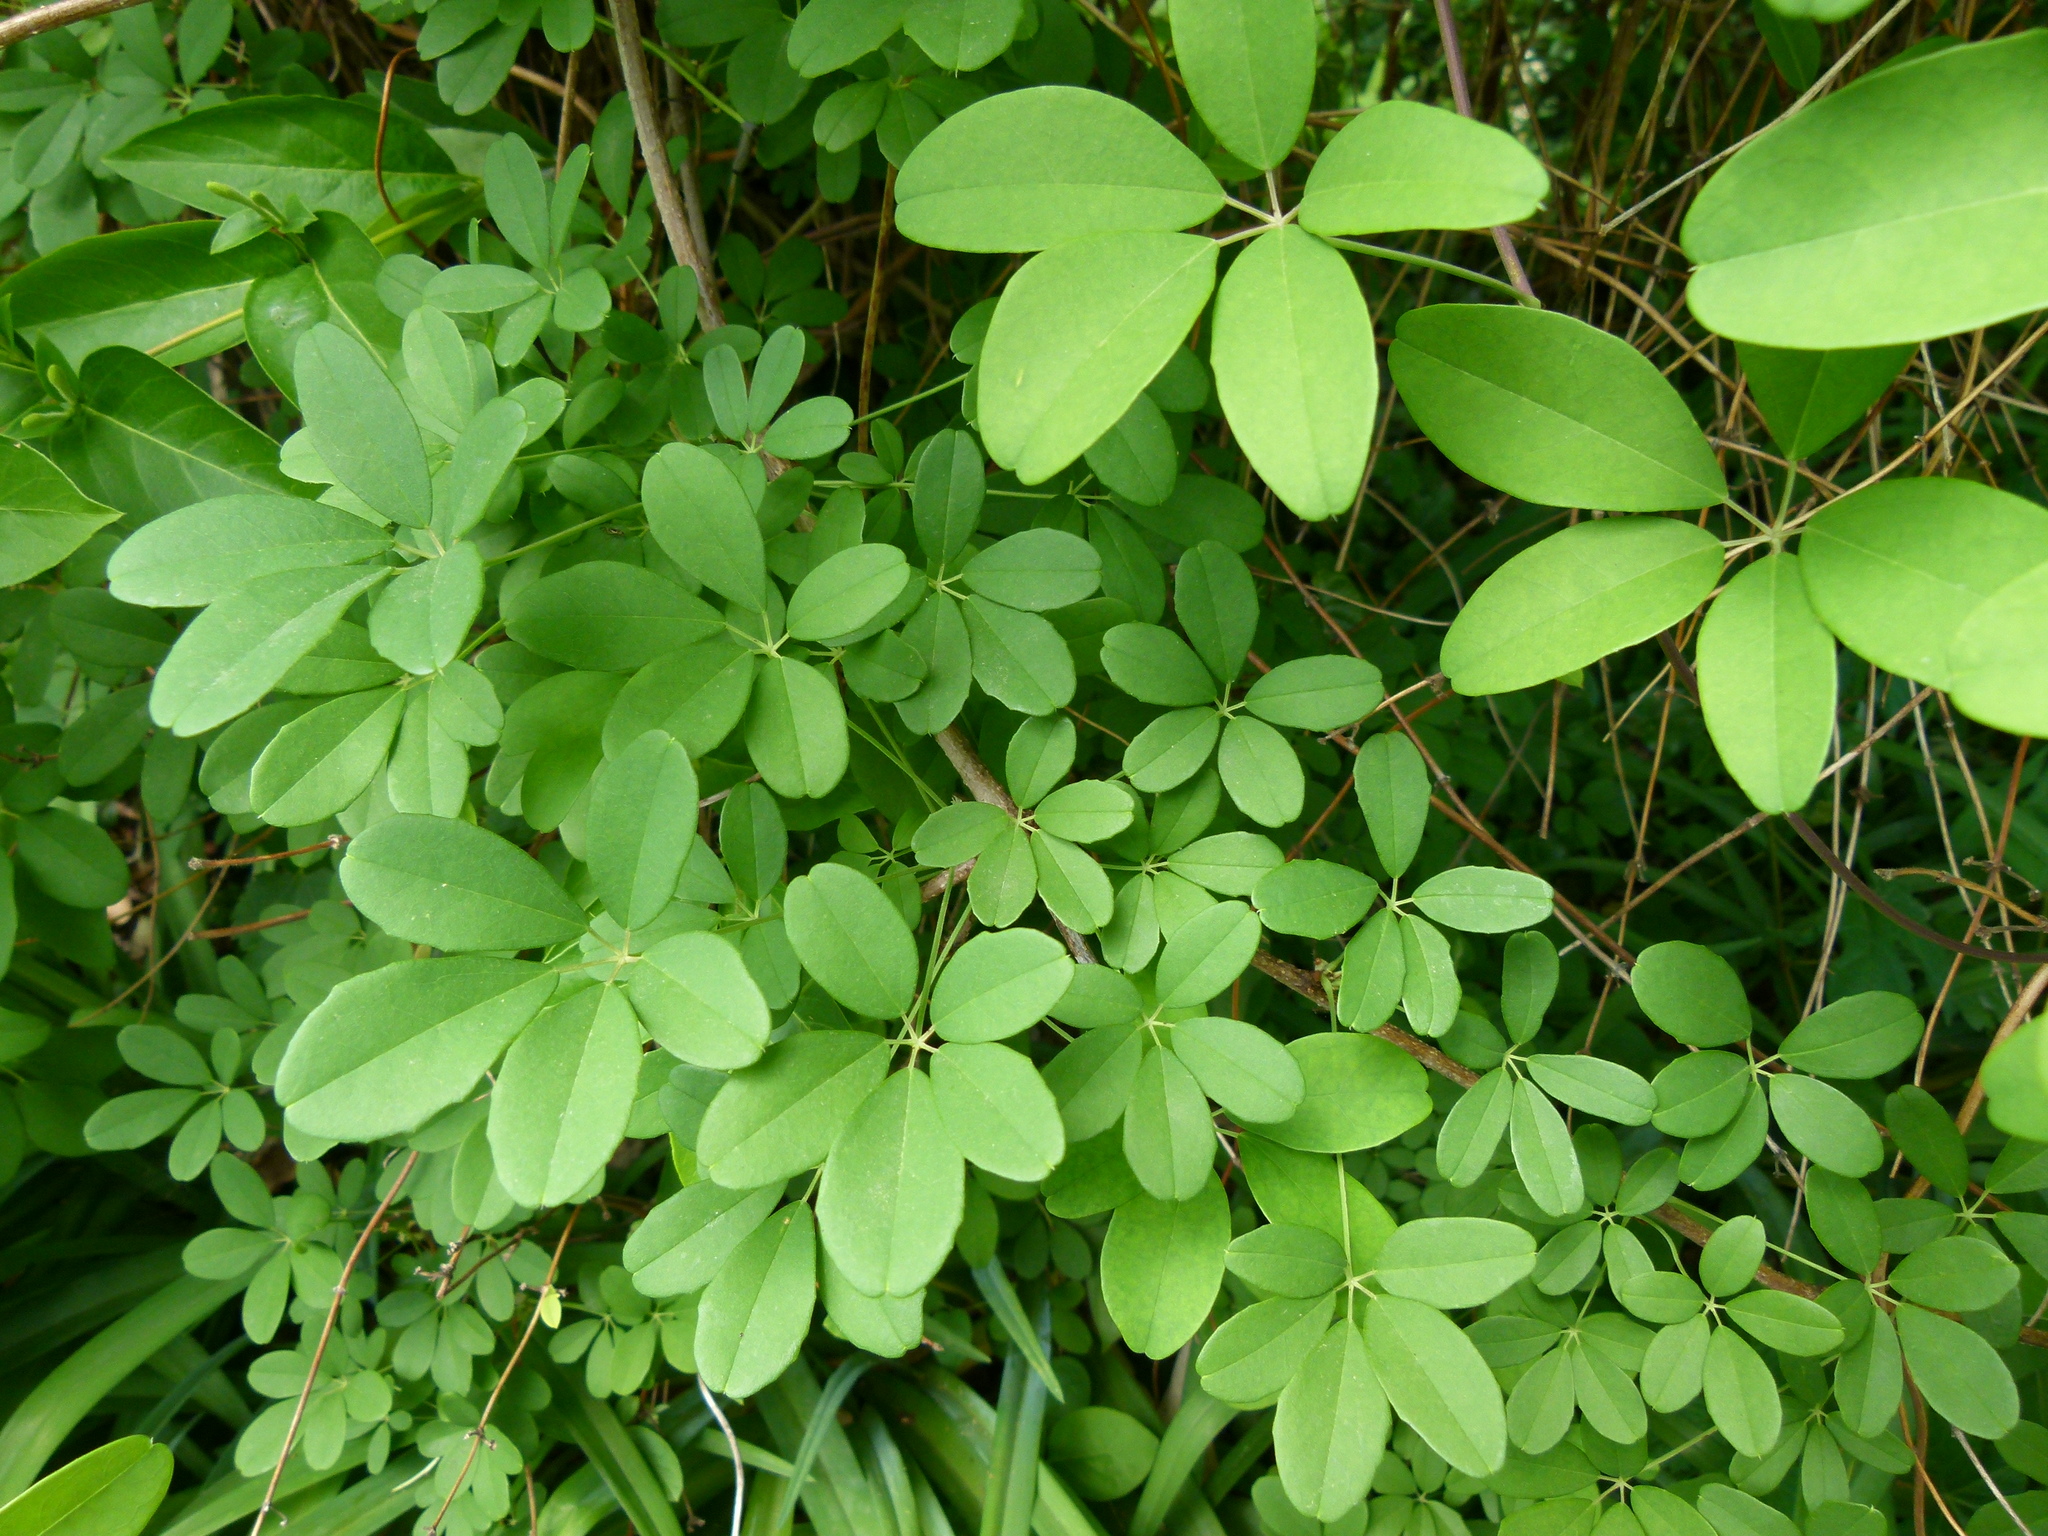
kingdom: Plantae
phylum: Tracheophyta
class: Magnoliopsida
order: Ranunculales
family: Lardizabalaceae
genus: Akebia
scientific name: Akebia quinata
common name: Five-leaf akebia
